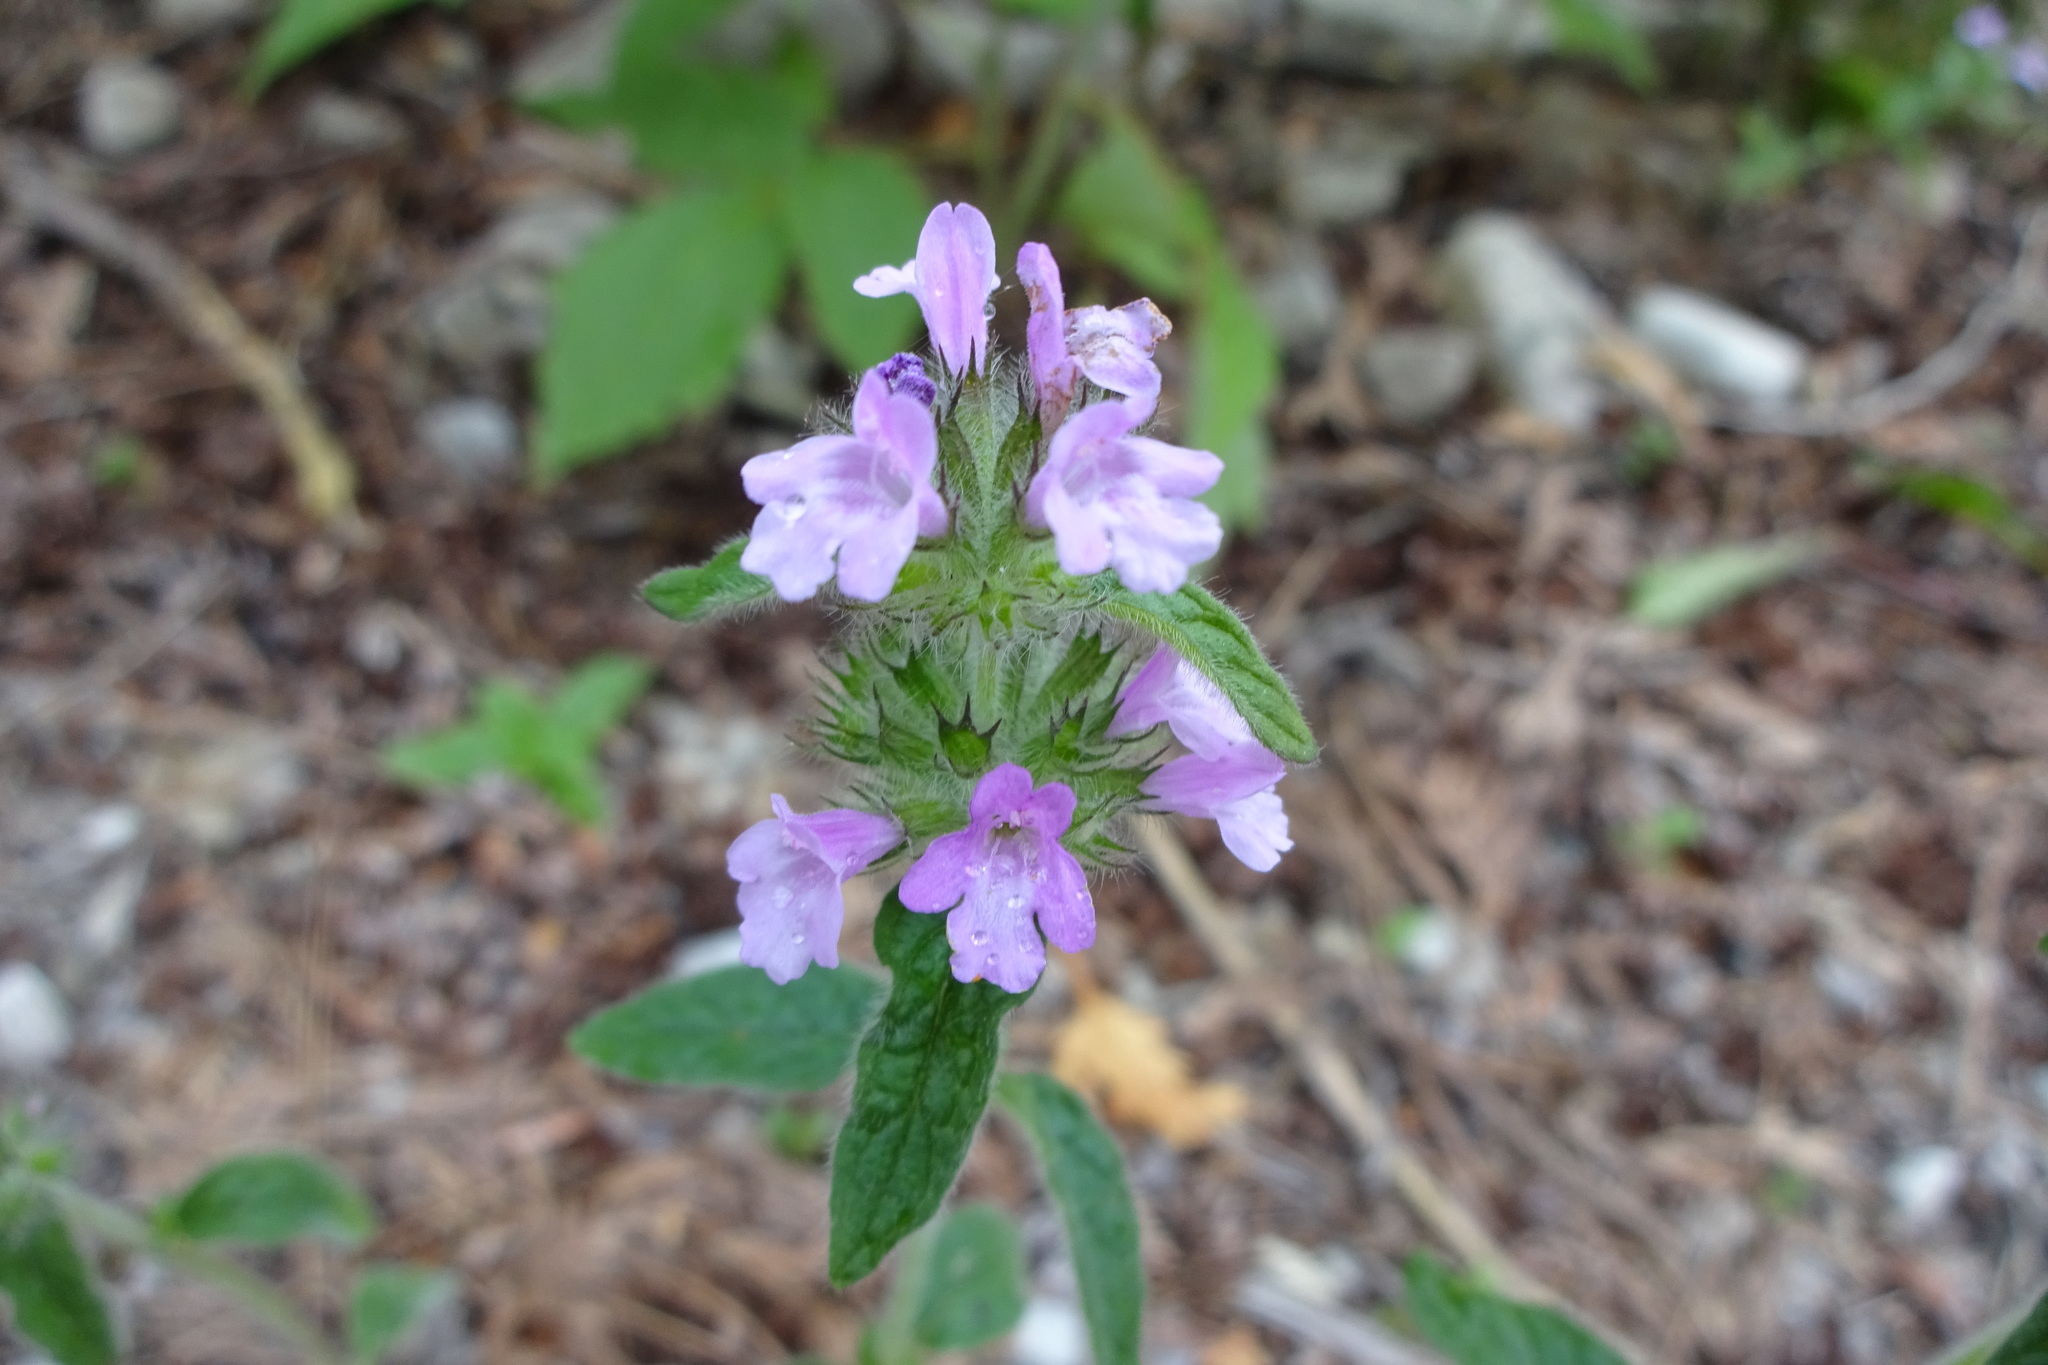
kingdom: Plantae
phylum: Tracheophyta
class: Magnoliopsida
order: Lamiales
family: Lamiaceae
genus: Clinopodium
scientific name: Clinopodium vulgare
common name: Wild basil
